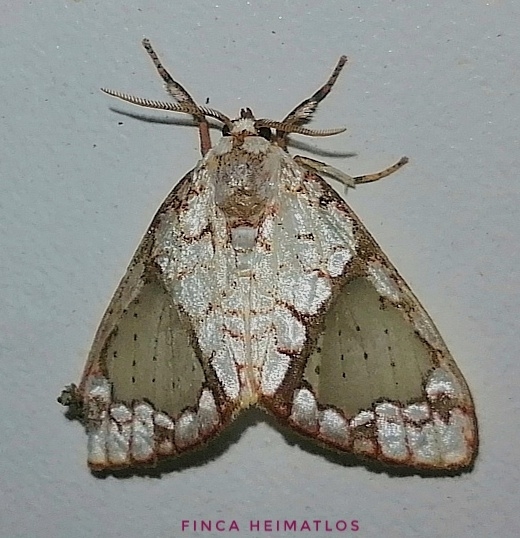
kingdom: Animalia
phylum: Arthropoda
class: Insecta
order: Lepidoptera
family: Erebidae
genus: Azatrephes
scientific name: Azatrephes argyrotis
